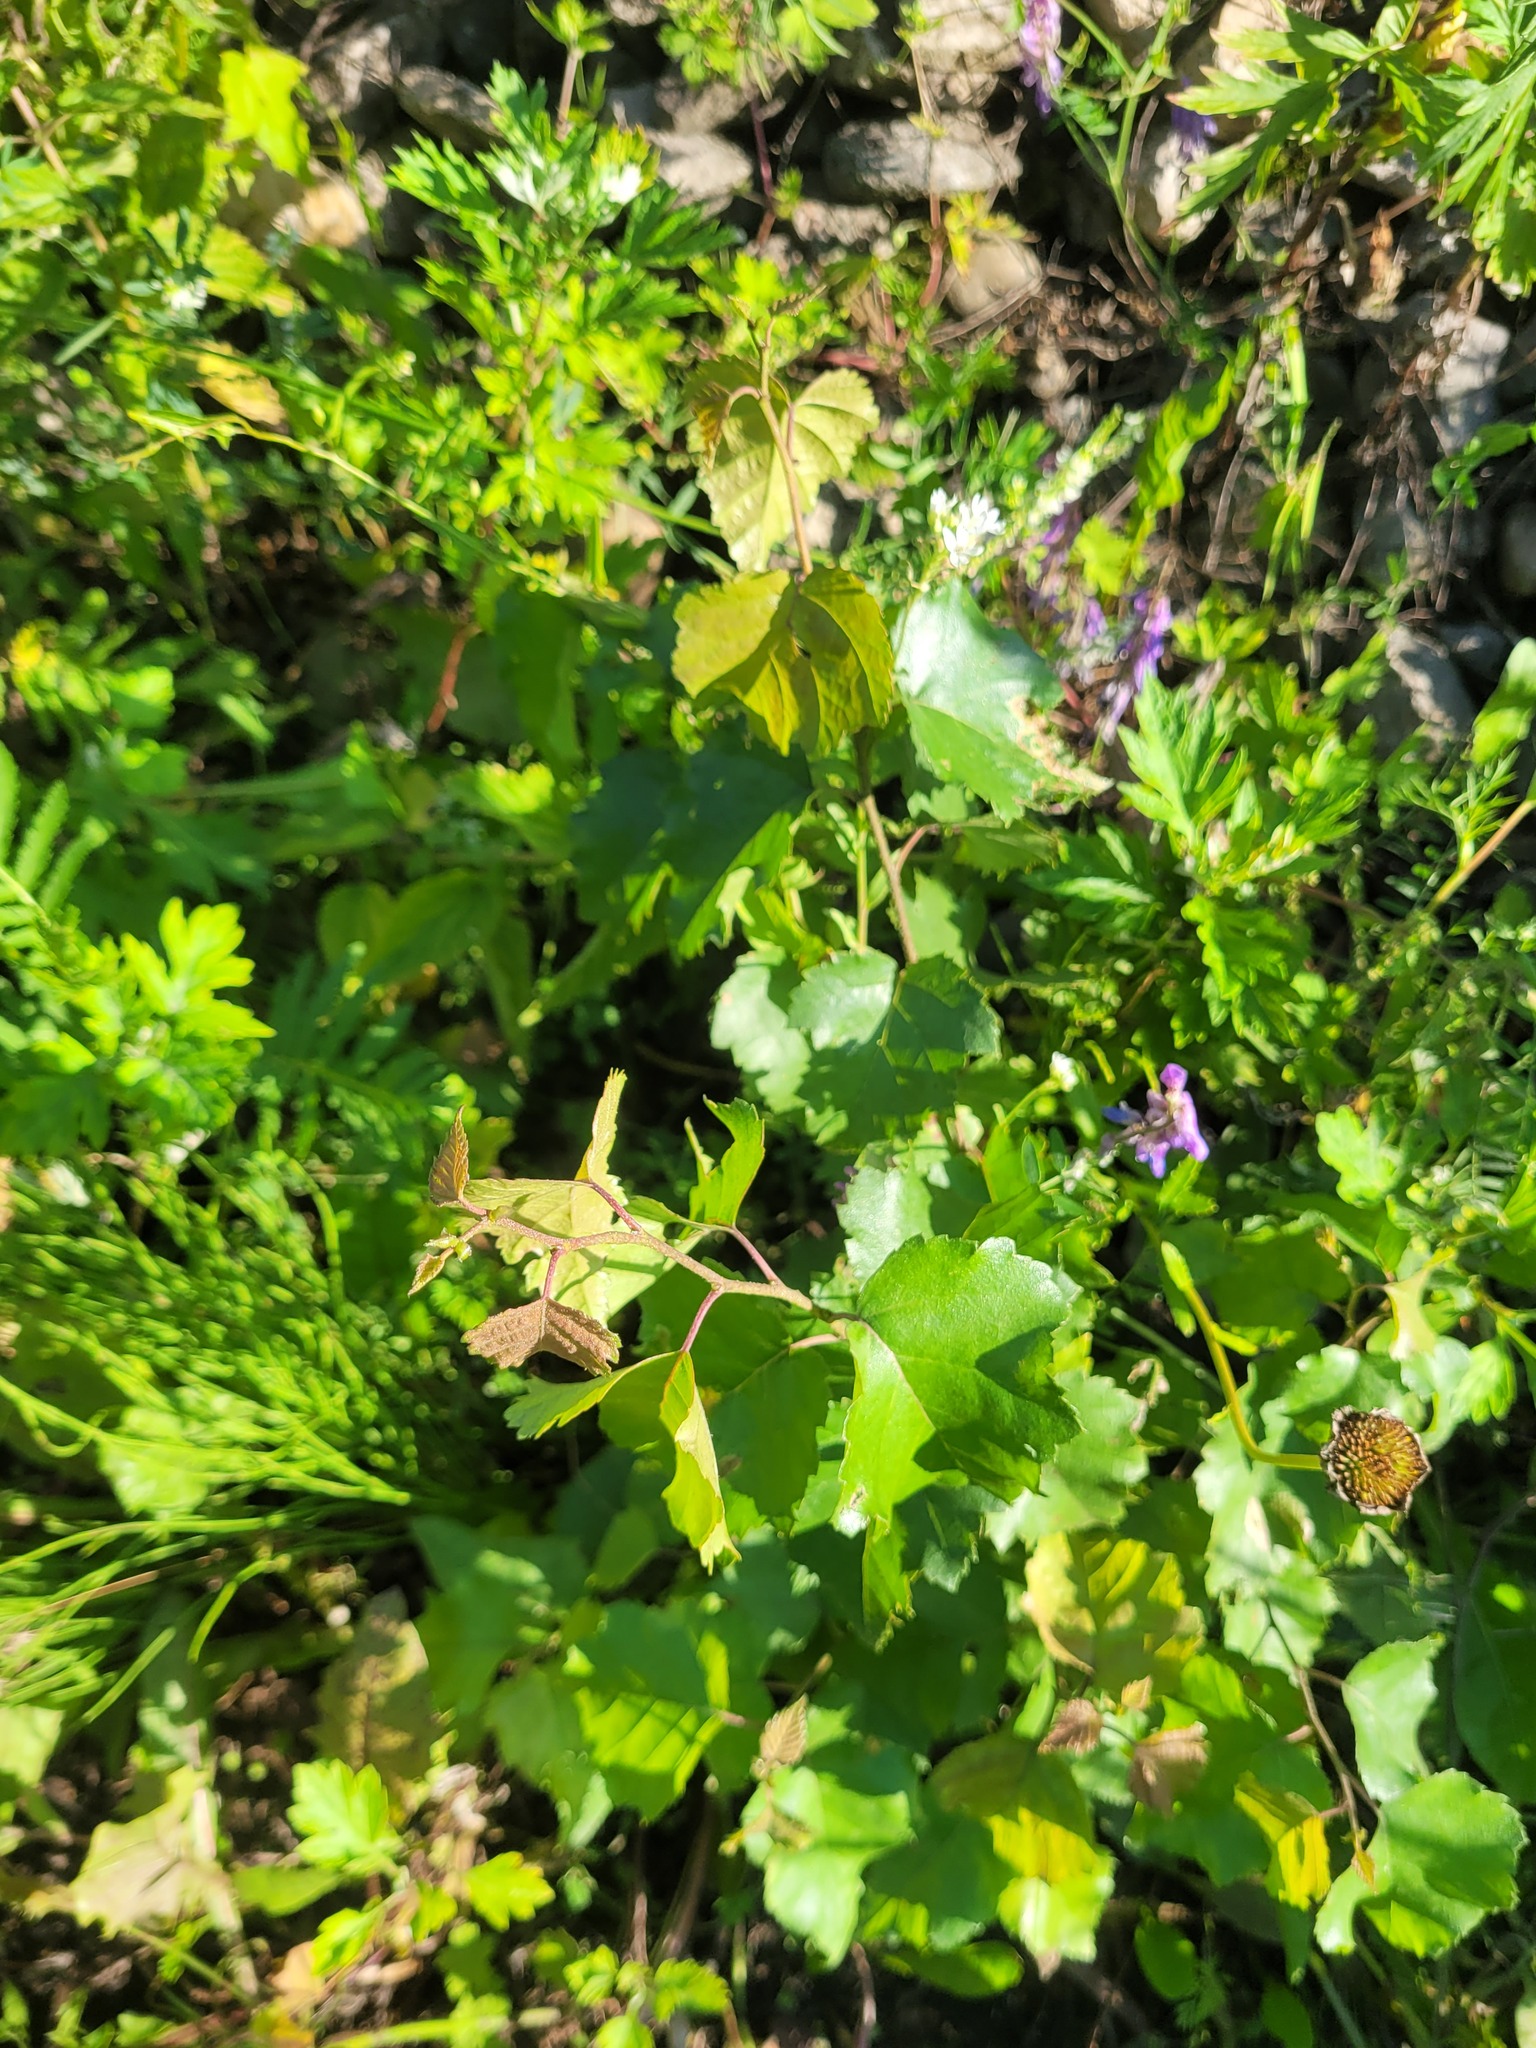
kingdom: Plantae
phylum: Tracheophyta
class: Magnoliopsida
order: Fagales
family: Betulaceae
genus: Betula
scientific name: Betula pendula
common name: Silver birch
